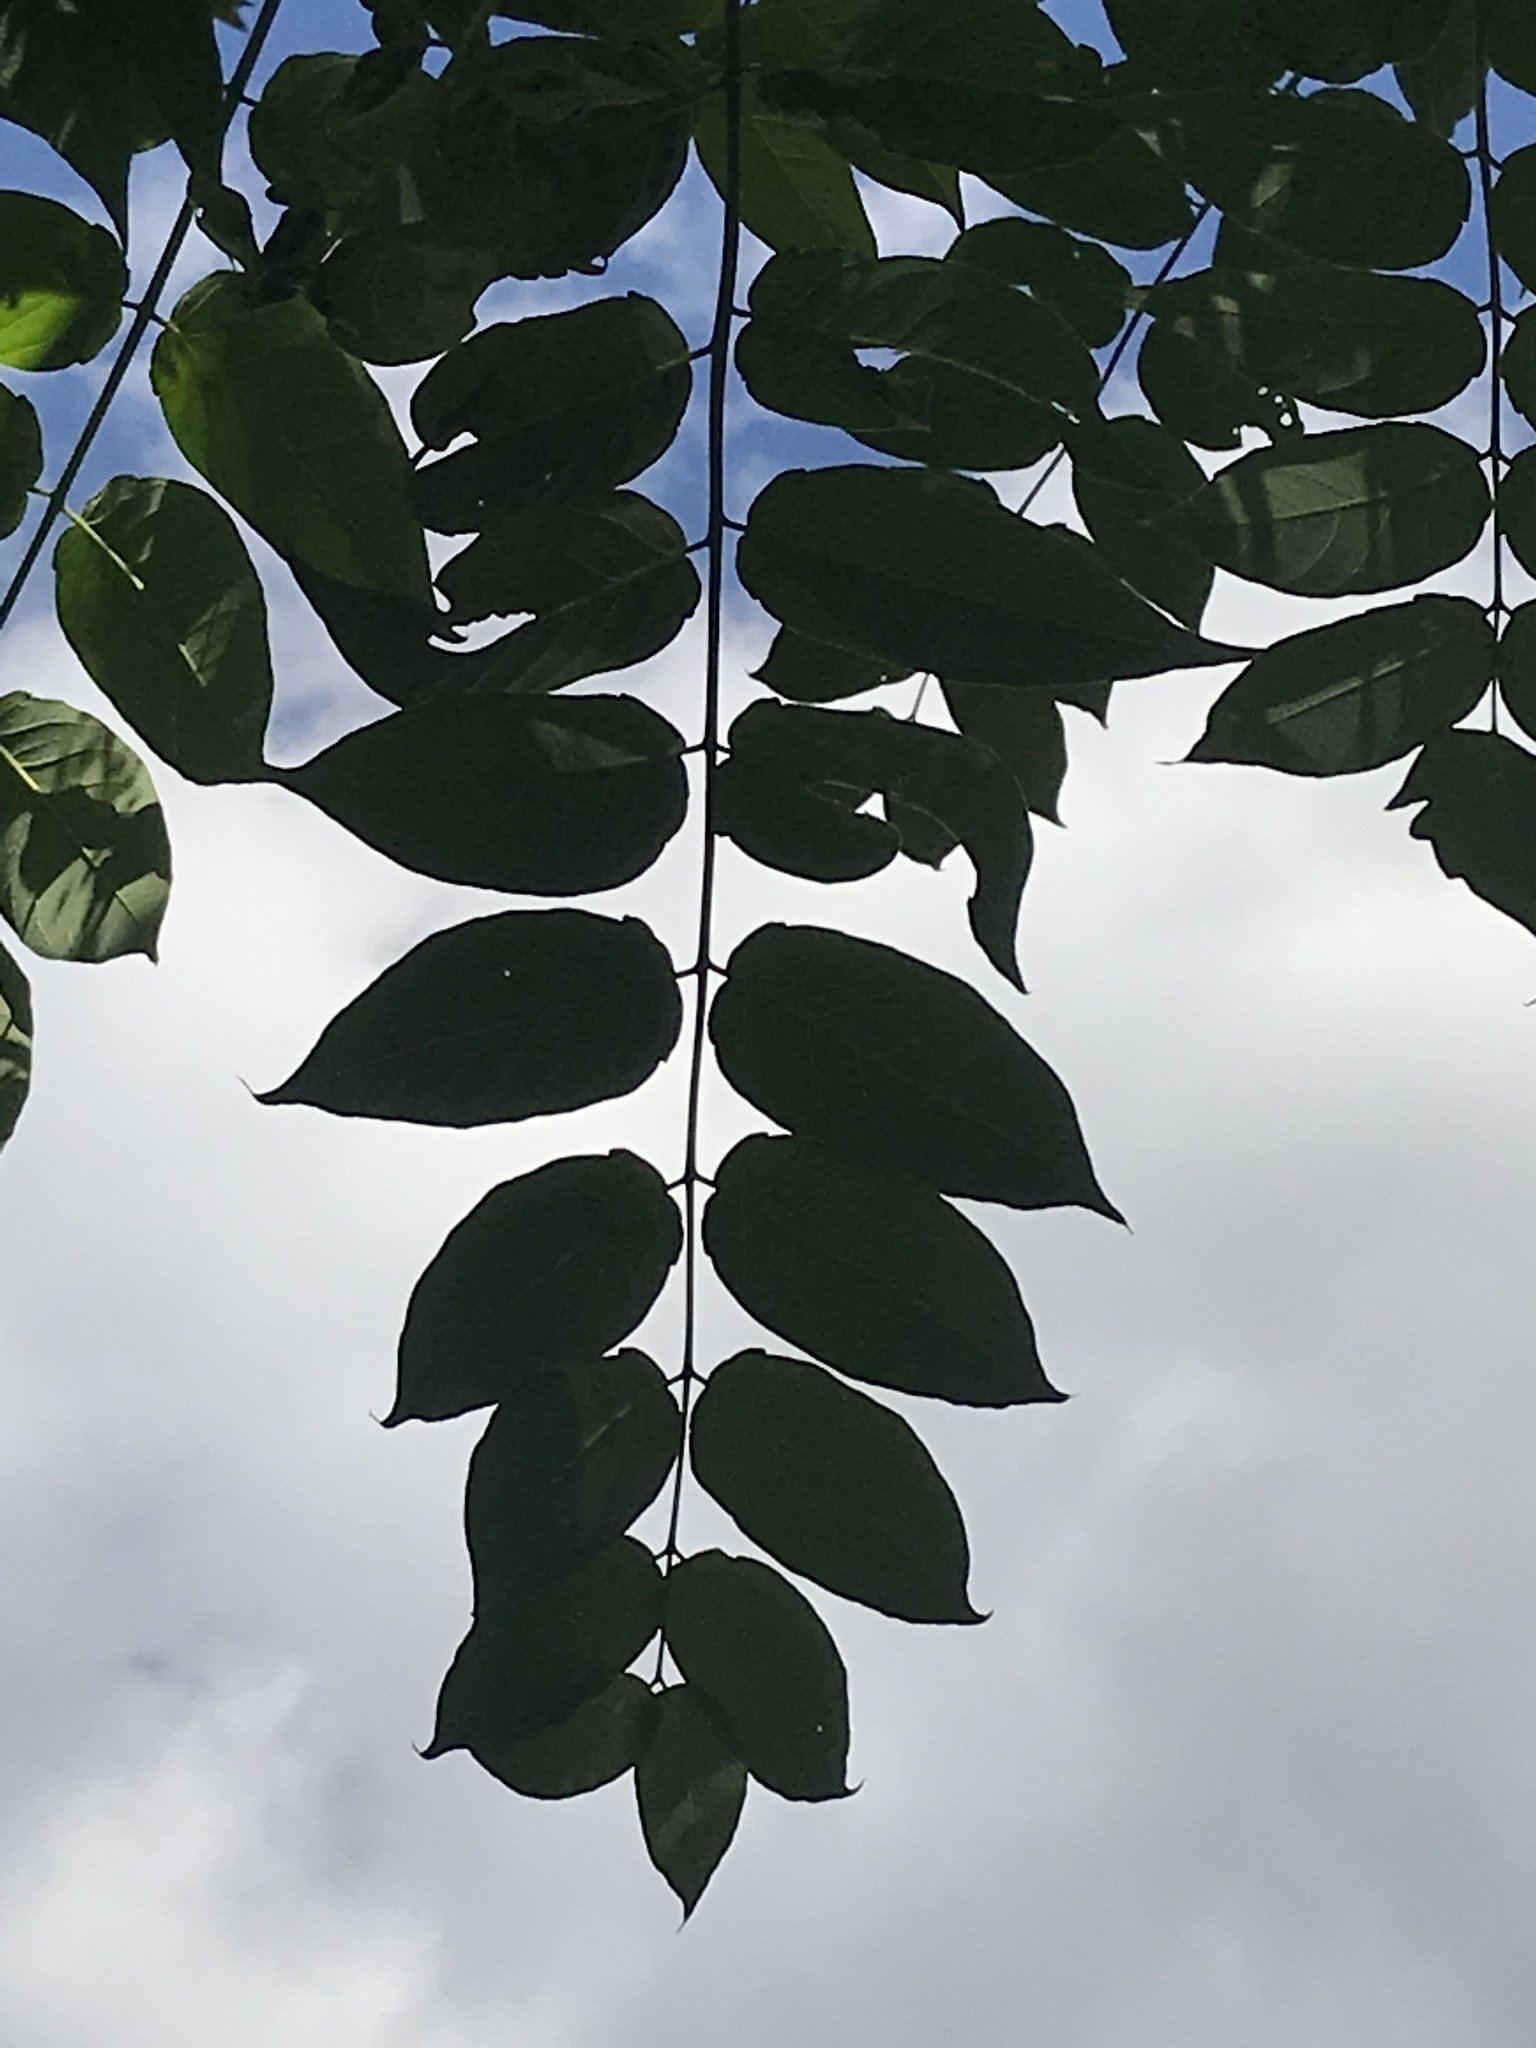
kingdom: Plantae
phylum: Tracheophyta
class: Magnoliopsida
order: Sapindales
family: Simaroubaceae
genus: Ailanthus
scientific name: Ailanthus altissima
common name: Tree-of-heaven
